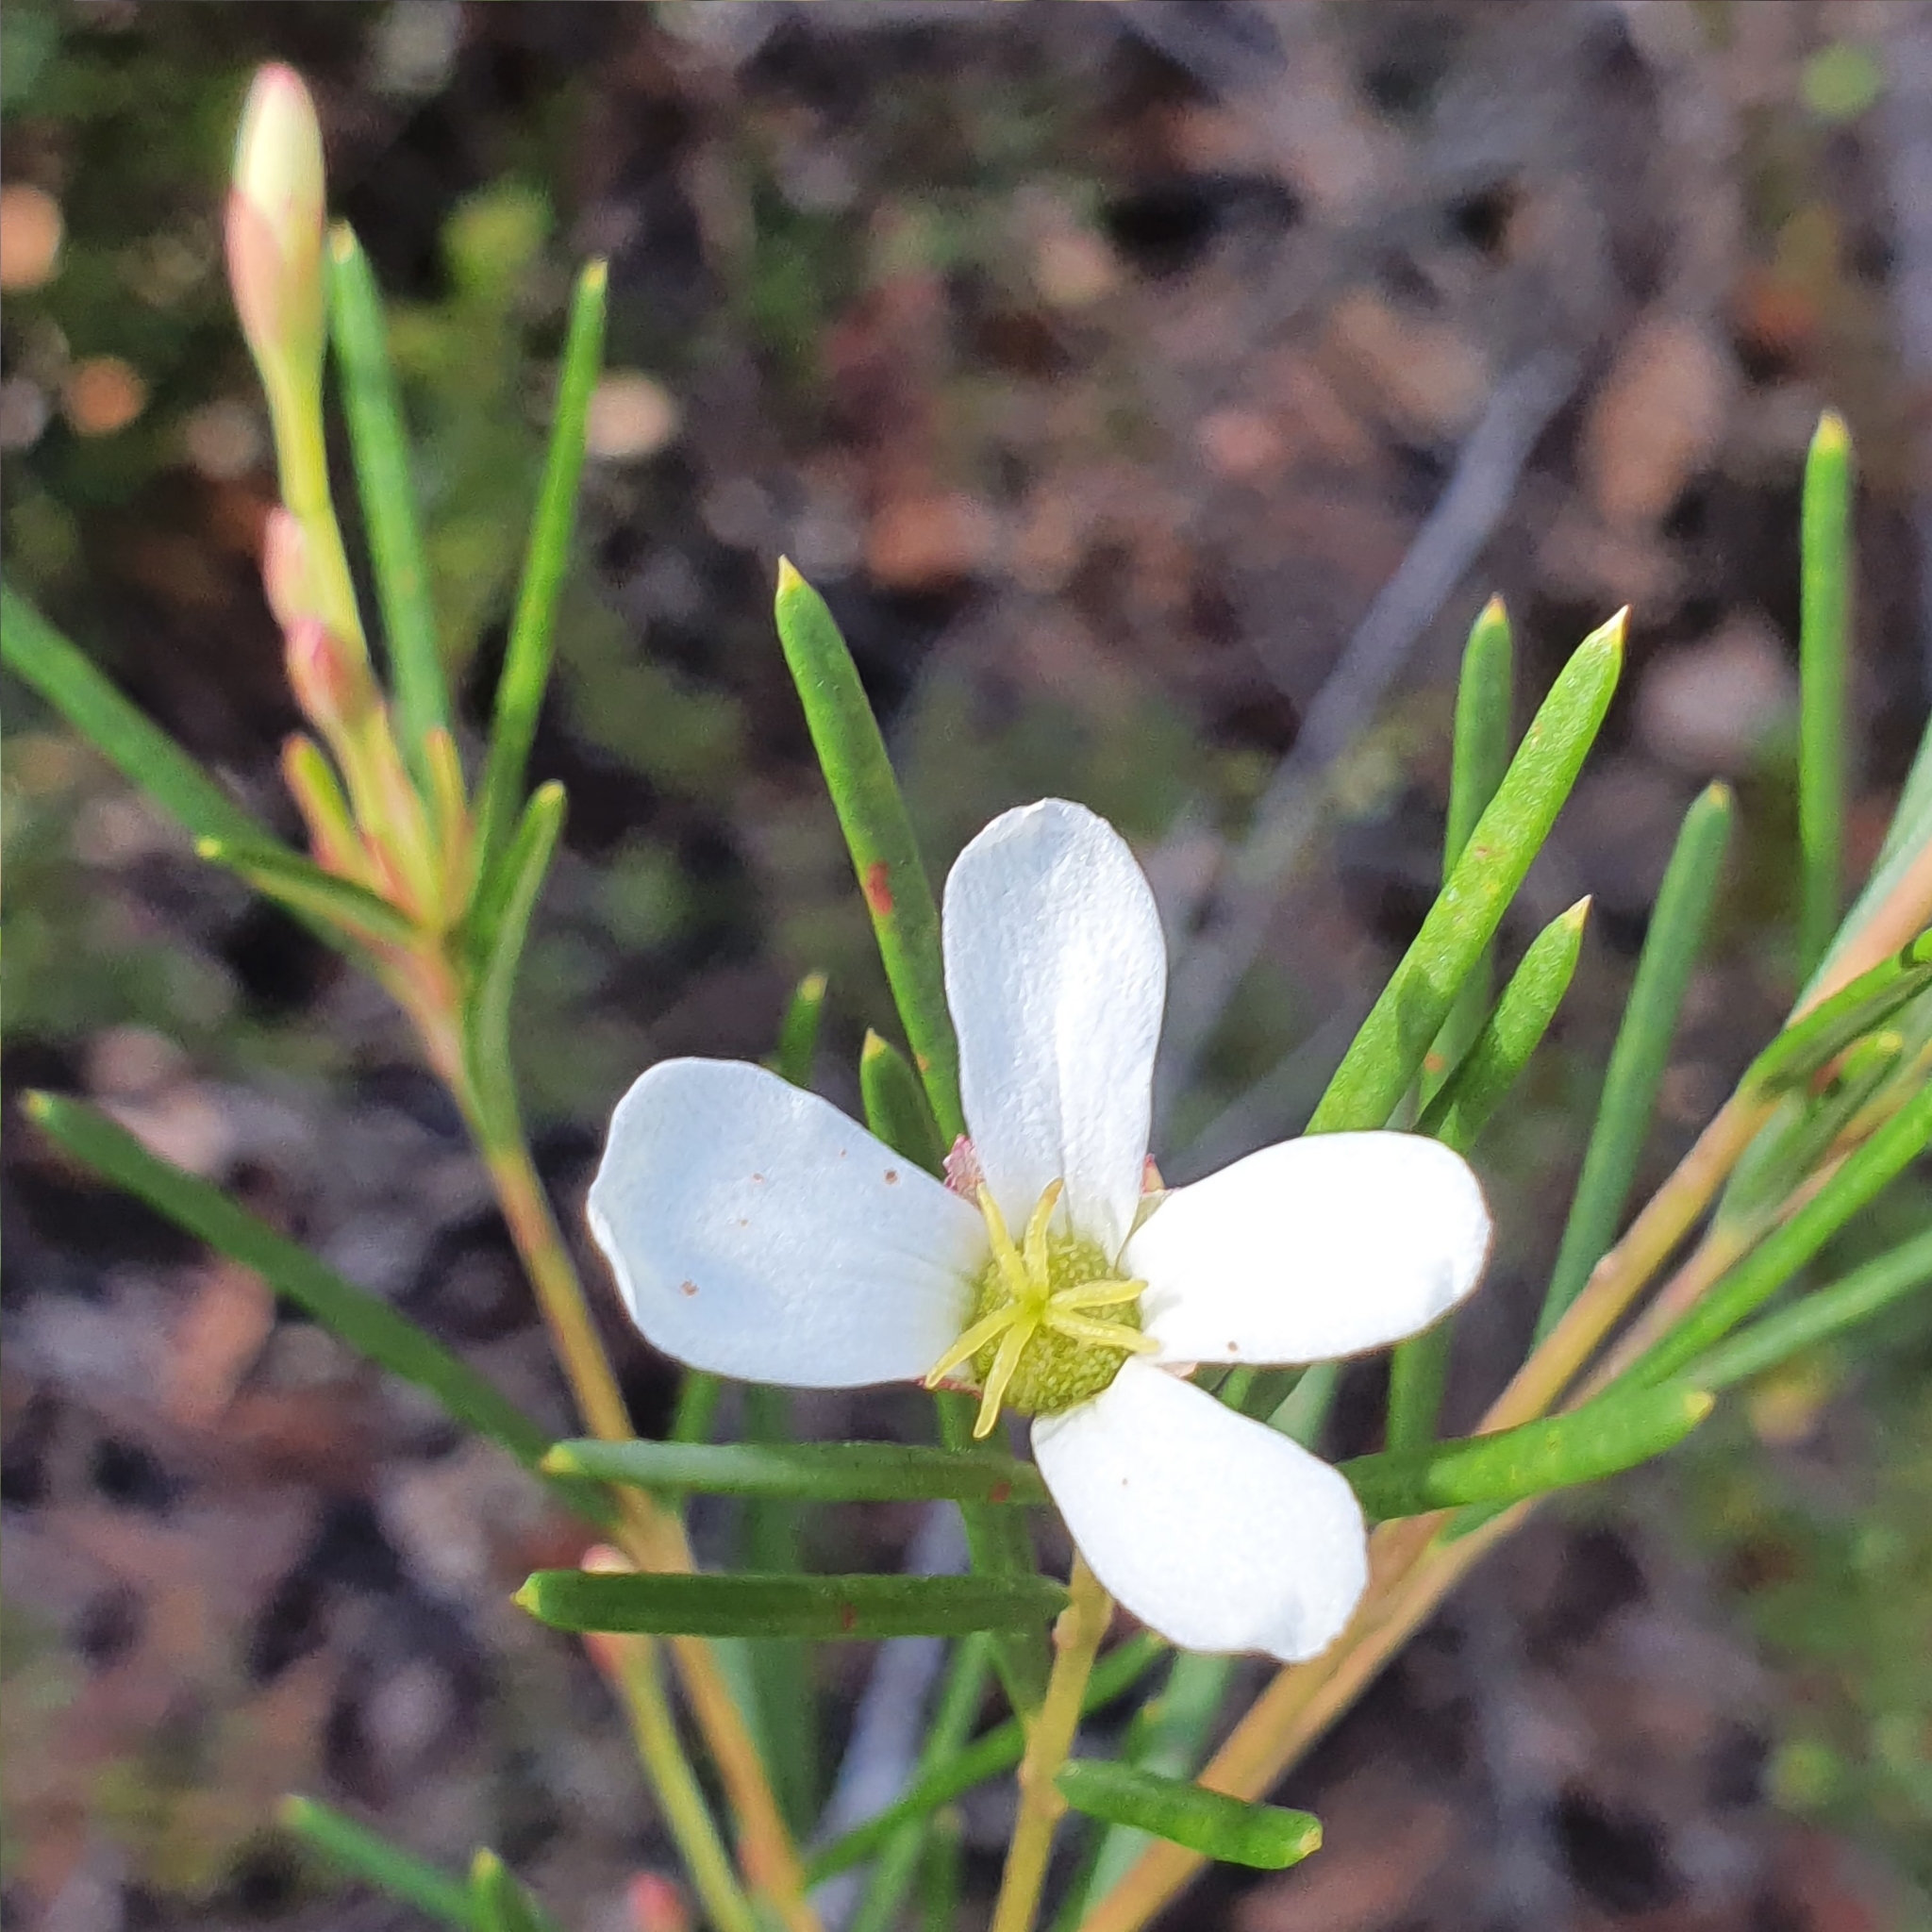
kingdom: Plantae
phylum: Tracheophyta
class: Magnoliopsida
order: Malpighiales
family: Euphorbiaceae
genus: Ricinocarpos
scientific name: Ricinocarpos pinifolius
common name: Weddingbush
